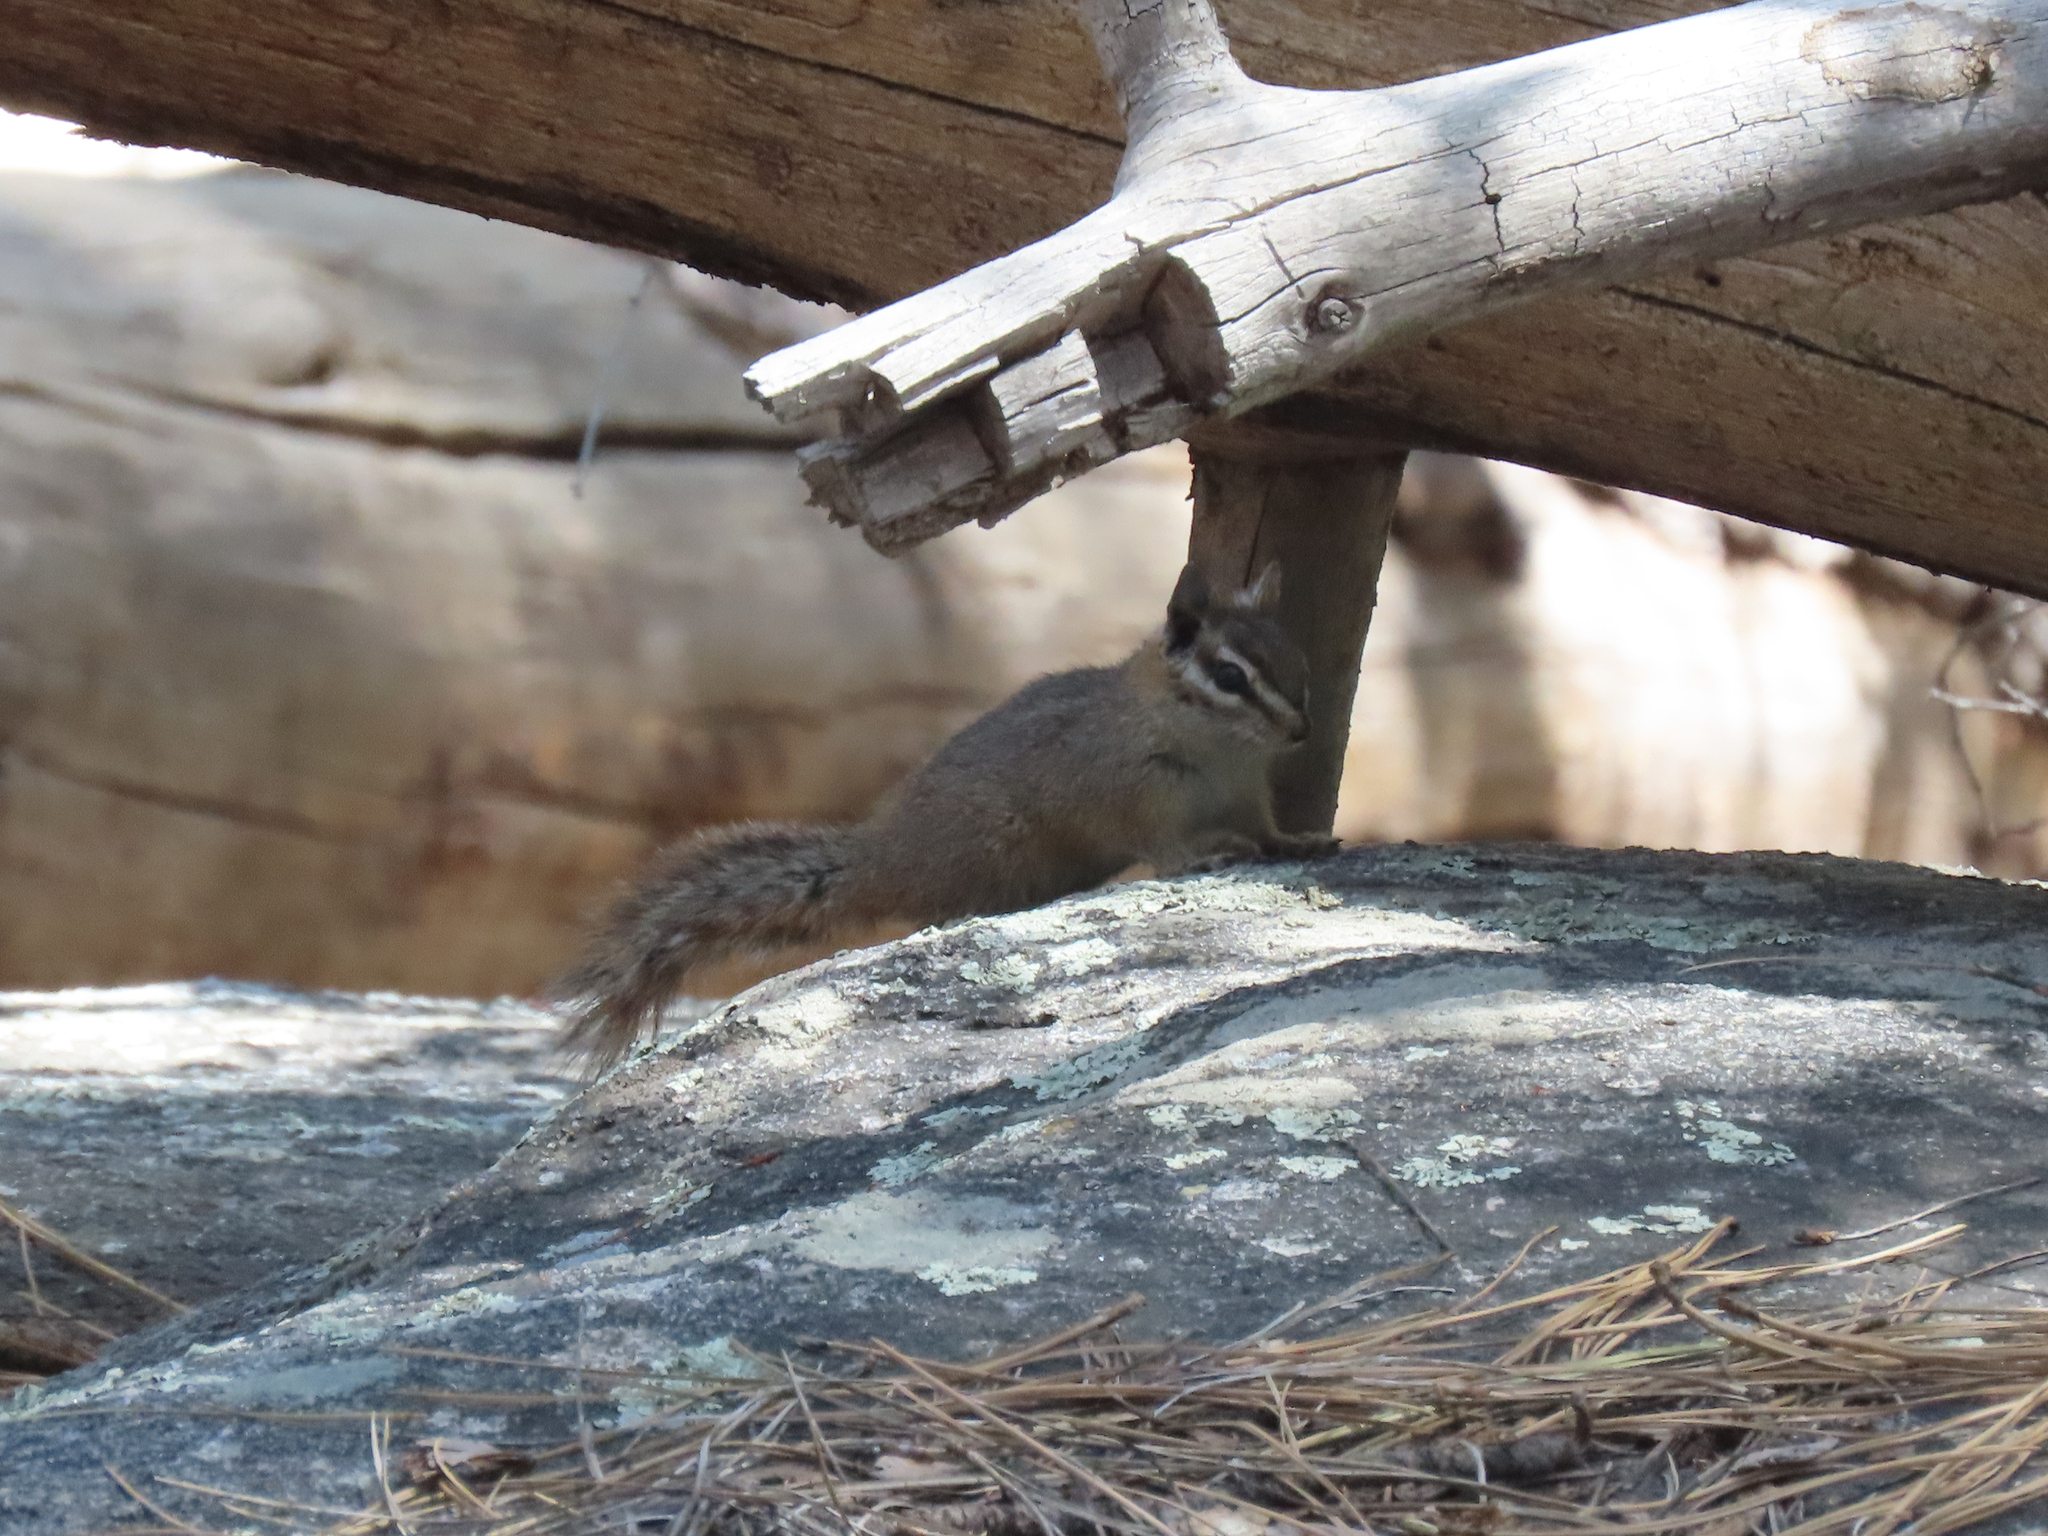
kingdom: Animalia
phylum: Chordata
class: Mammalia
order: Rodentia
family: Sciuridae
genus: Tamias
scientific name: Tamias dorsalis
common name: Cliff chipmunk
